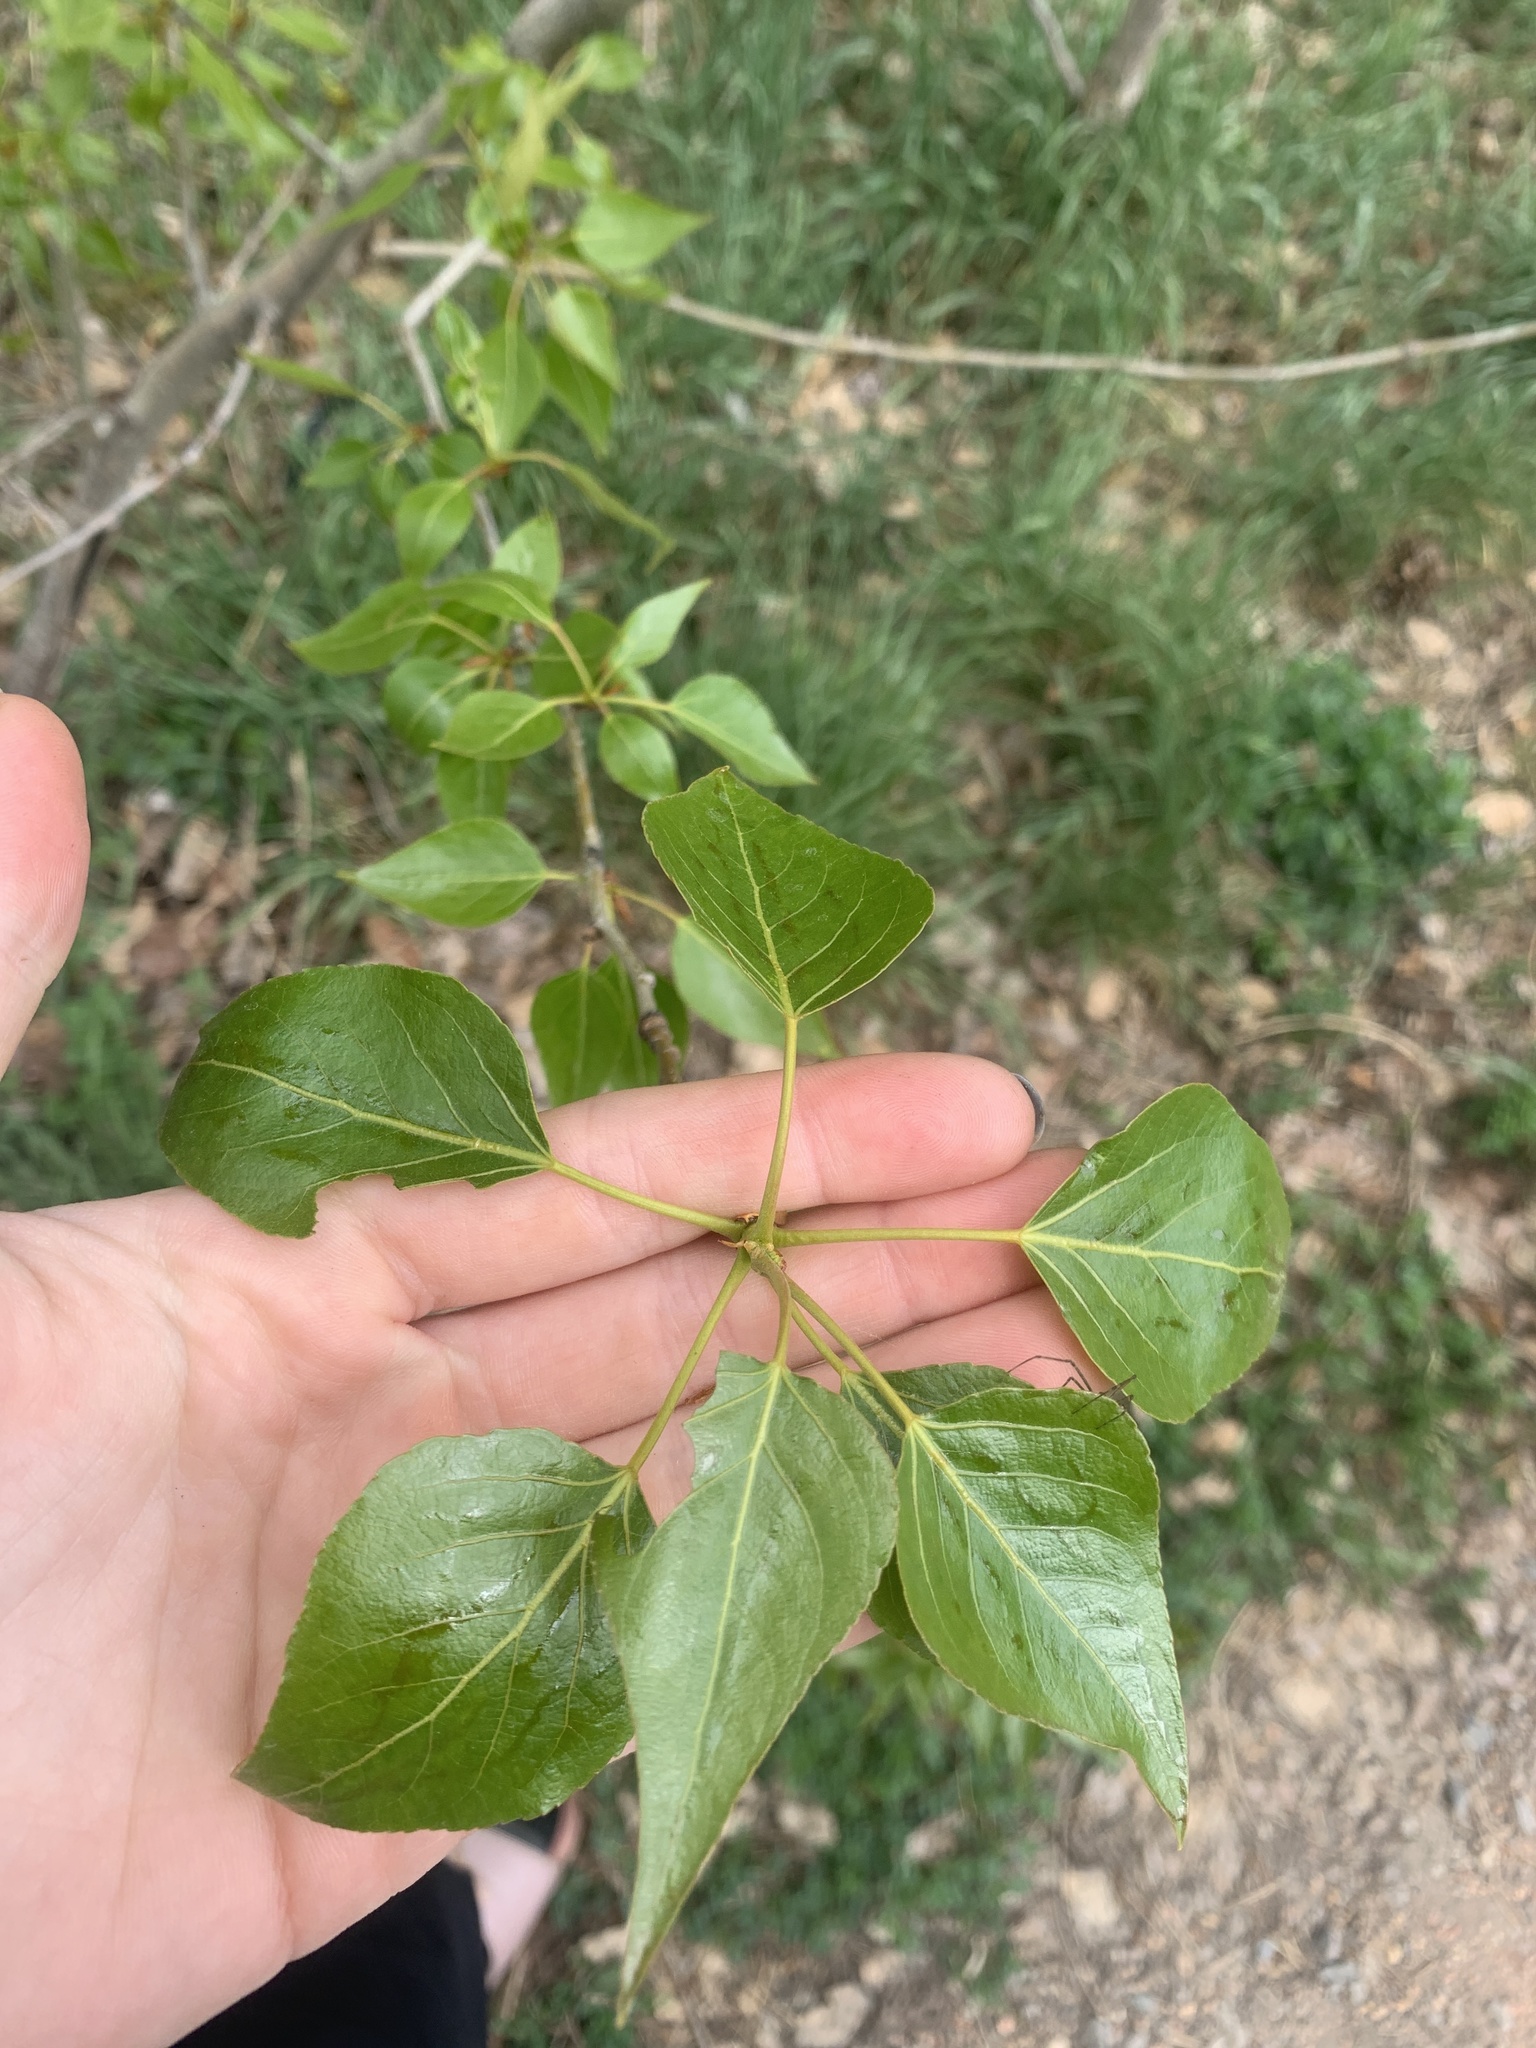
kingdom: Plantae
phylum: Tracheophyta
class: Magnoliopsida
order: Malpighiales
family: Salicaceae
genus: Populus
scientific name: Populus trichocarpa
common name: Black cottonwood
